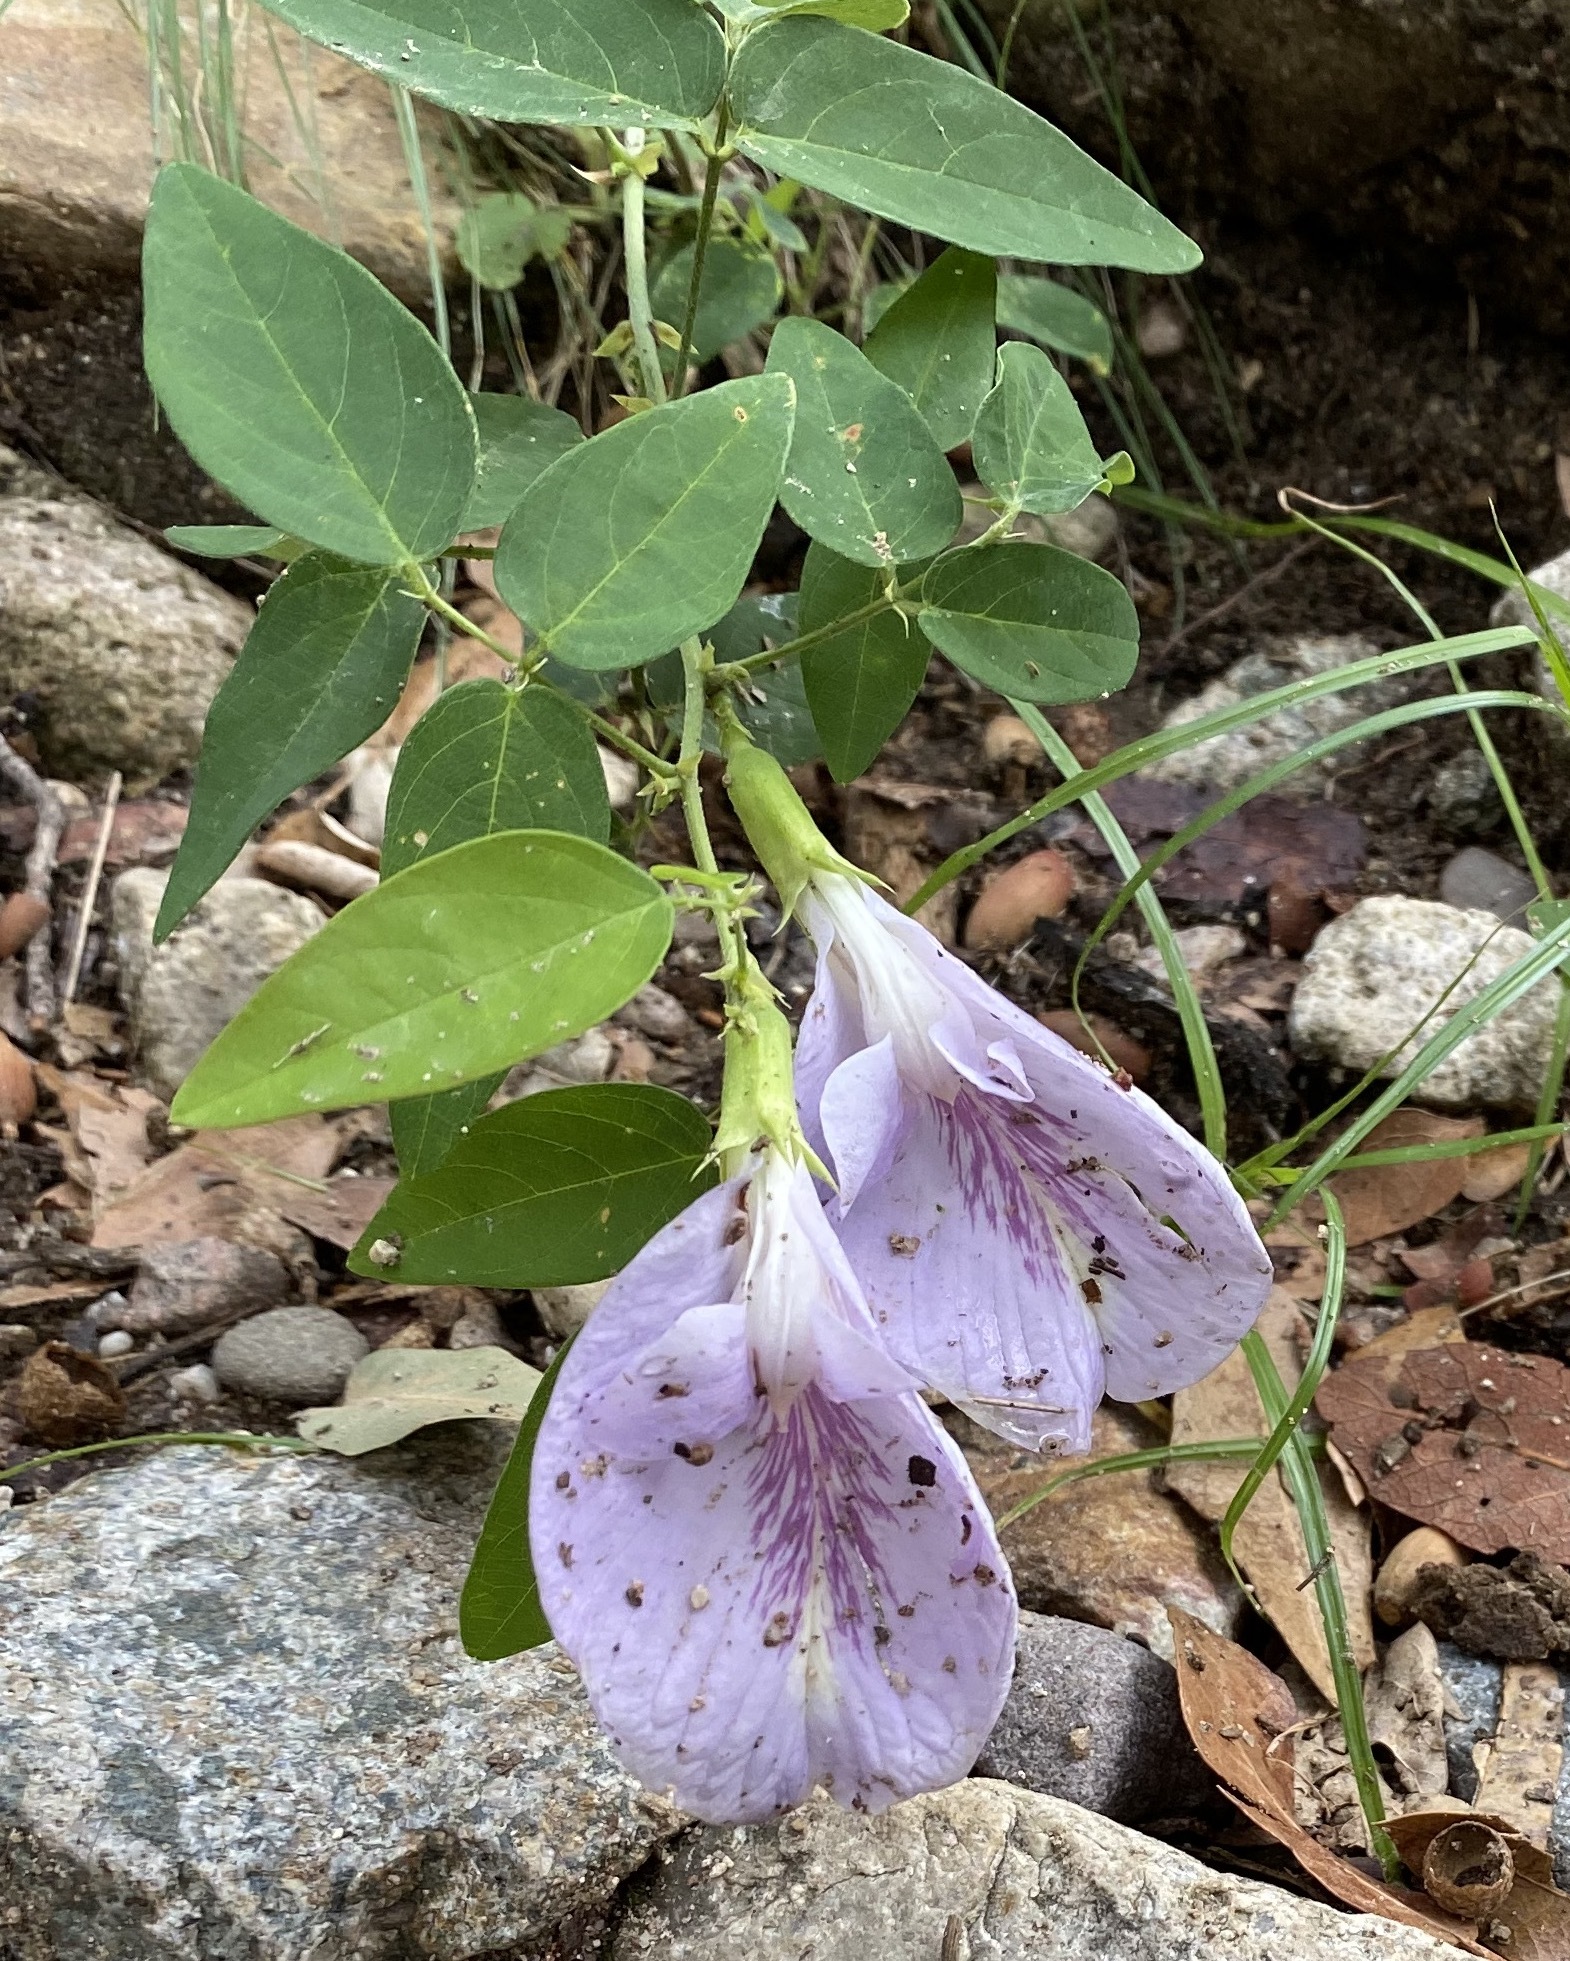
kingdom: Plantae
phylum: Tracheophyta
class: Magnoliopsida
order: Fabales
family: Fabaceae
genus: Clitoria
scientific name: Clitoria mariana
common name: Butterfly-pea
